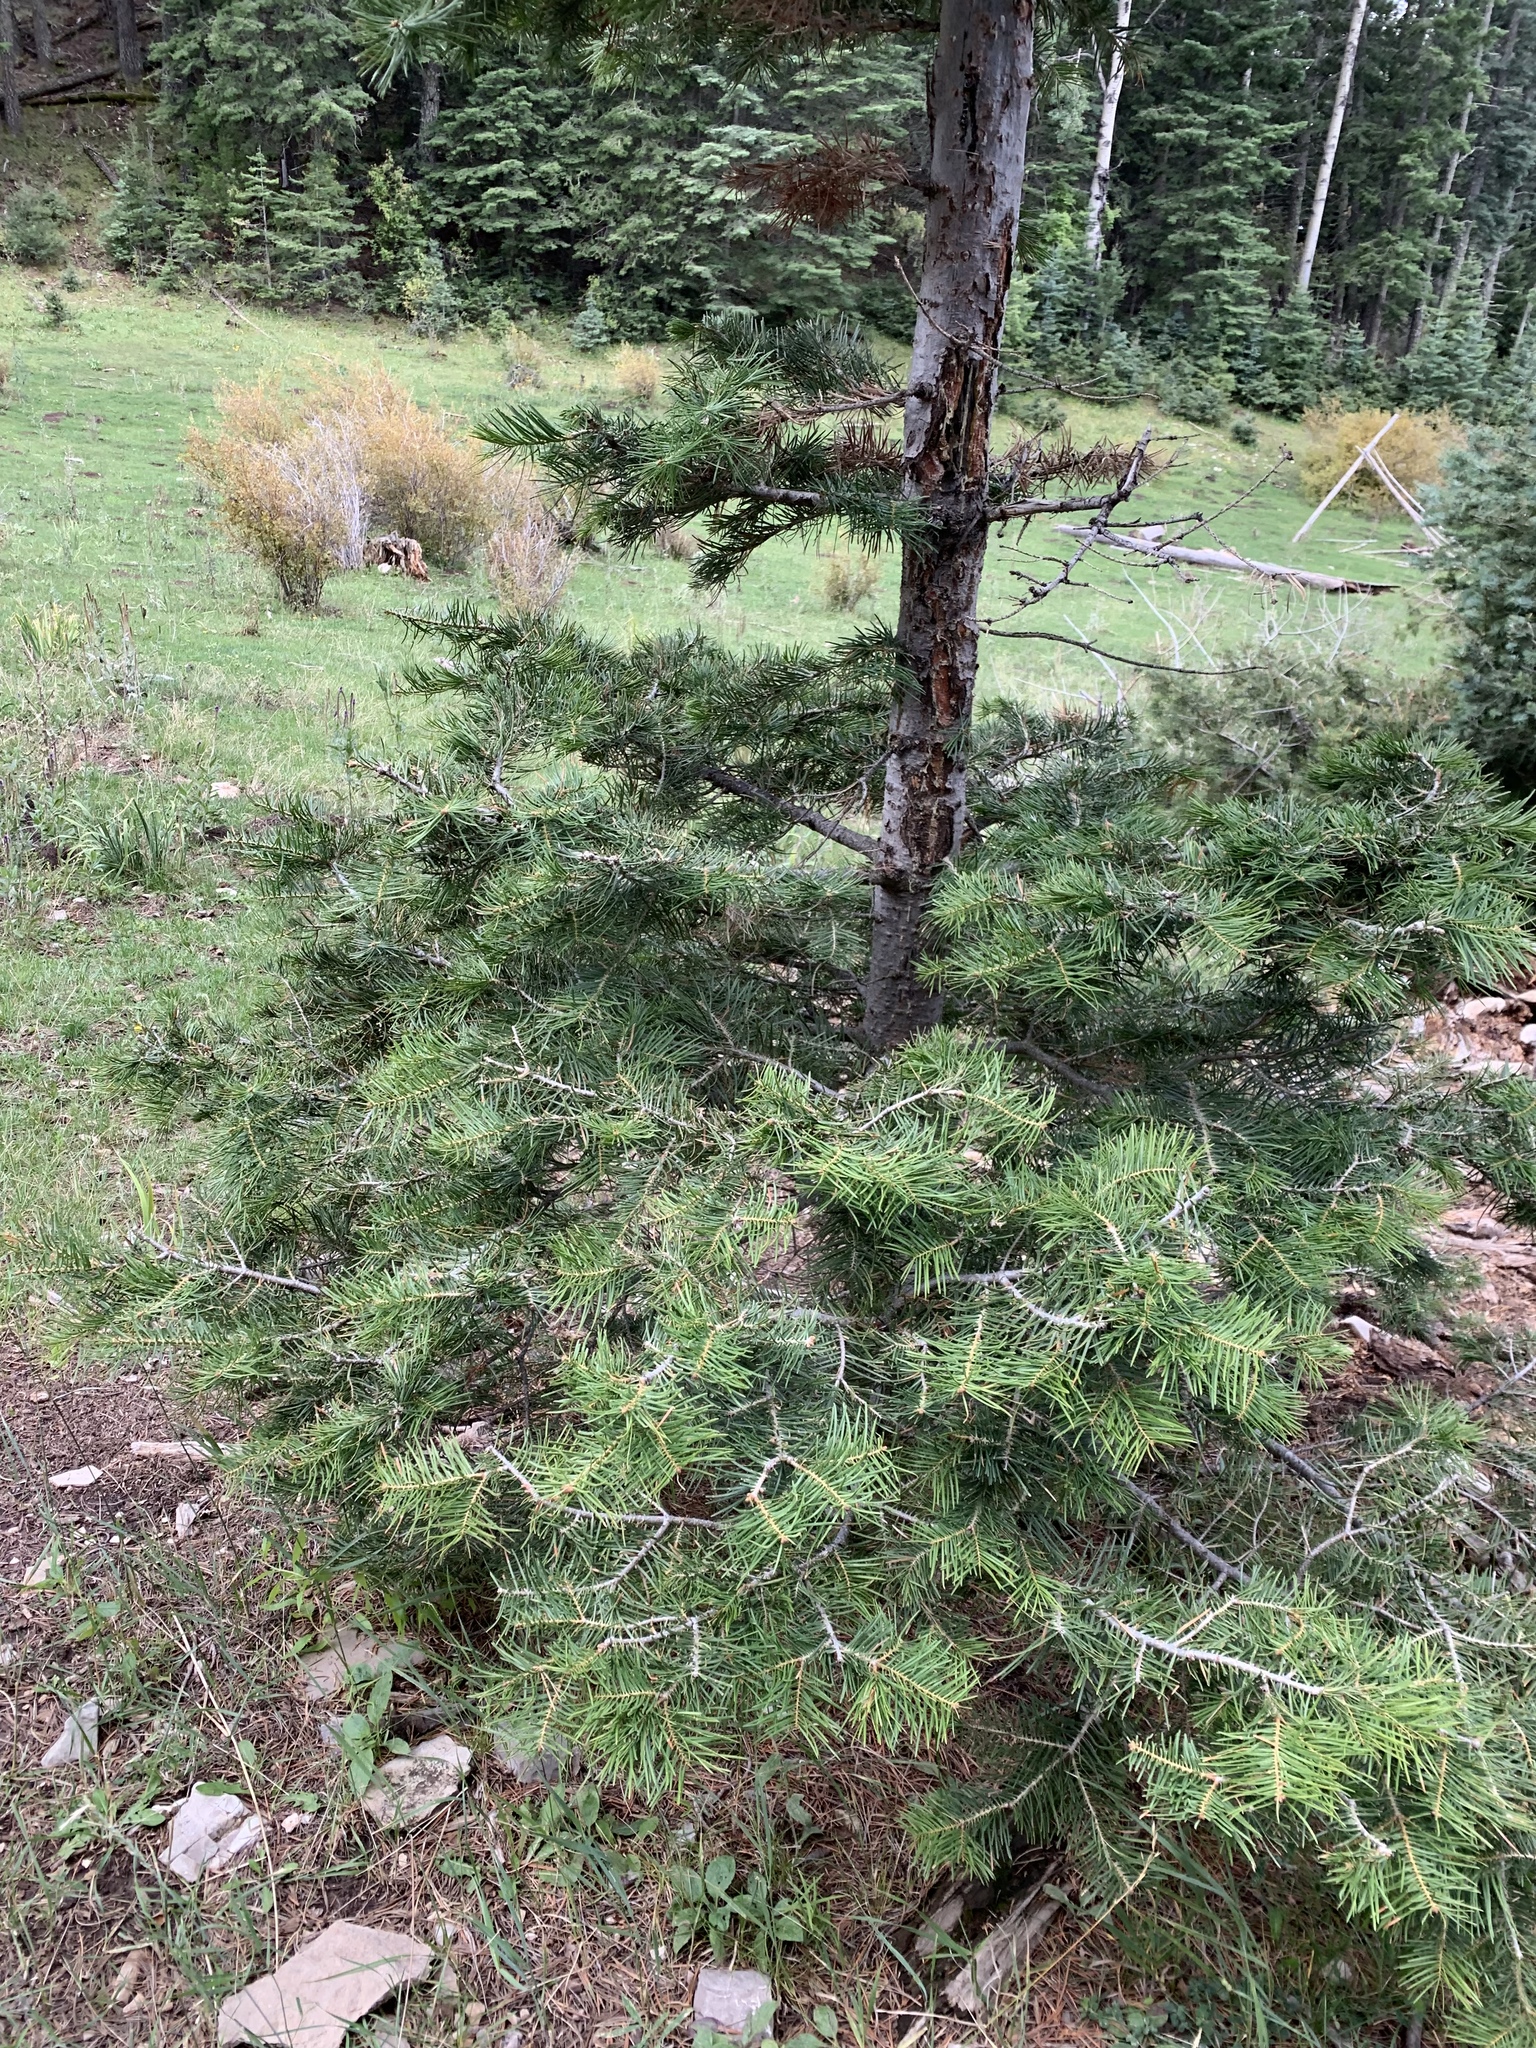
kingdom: Plantae
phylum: Tracheophyta
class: Pinopsida
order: Pinales
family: Pinaceae
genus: Abies
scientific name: Abies concolor
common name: Colorado fir
